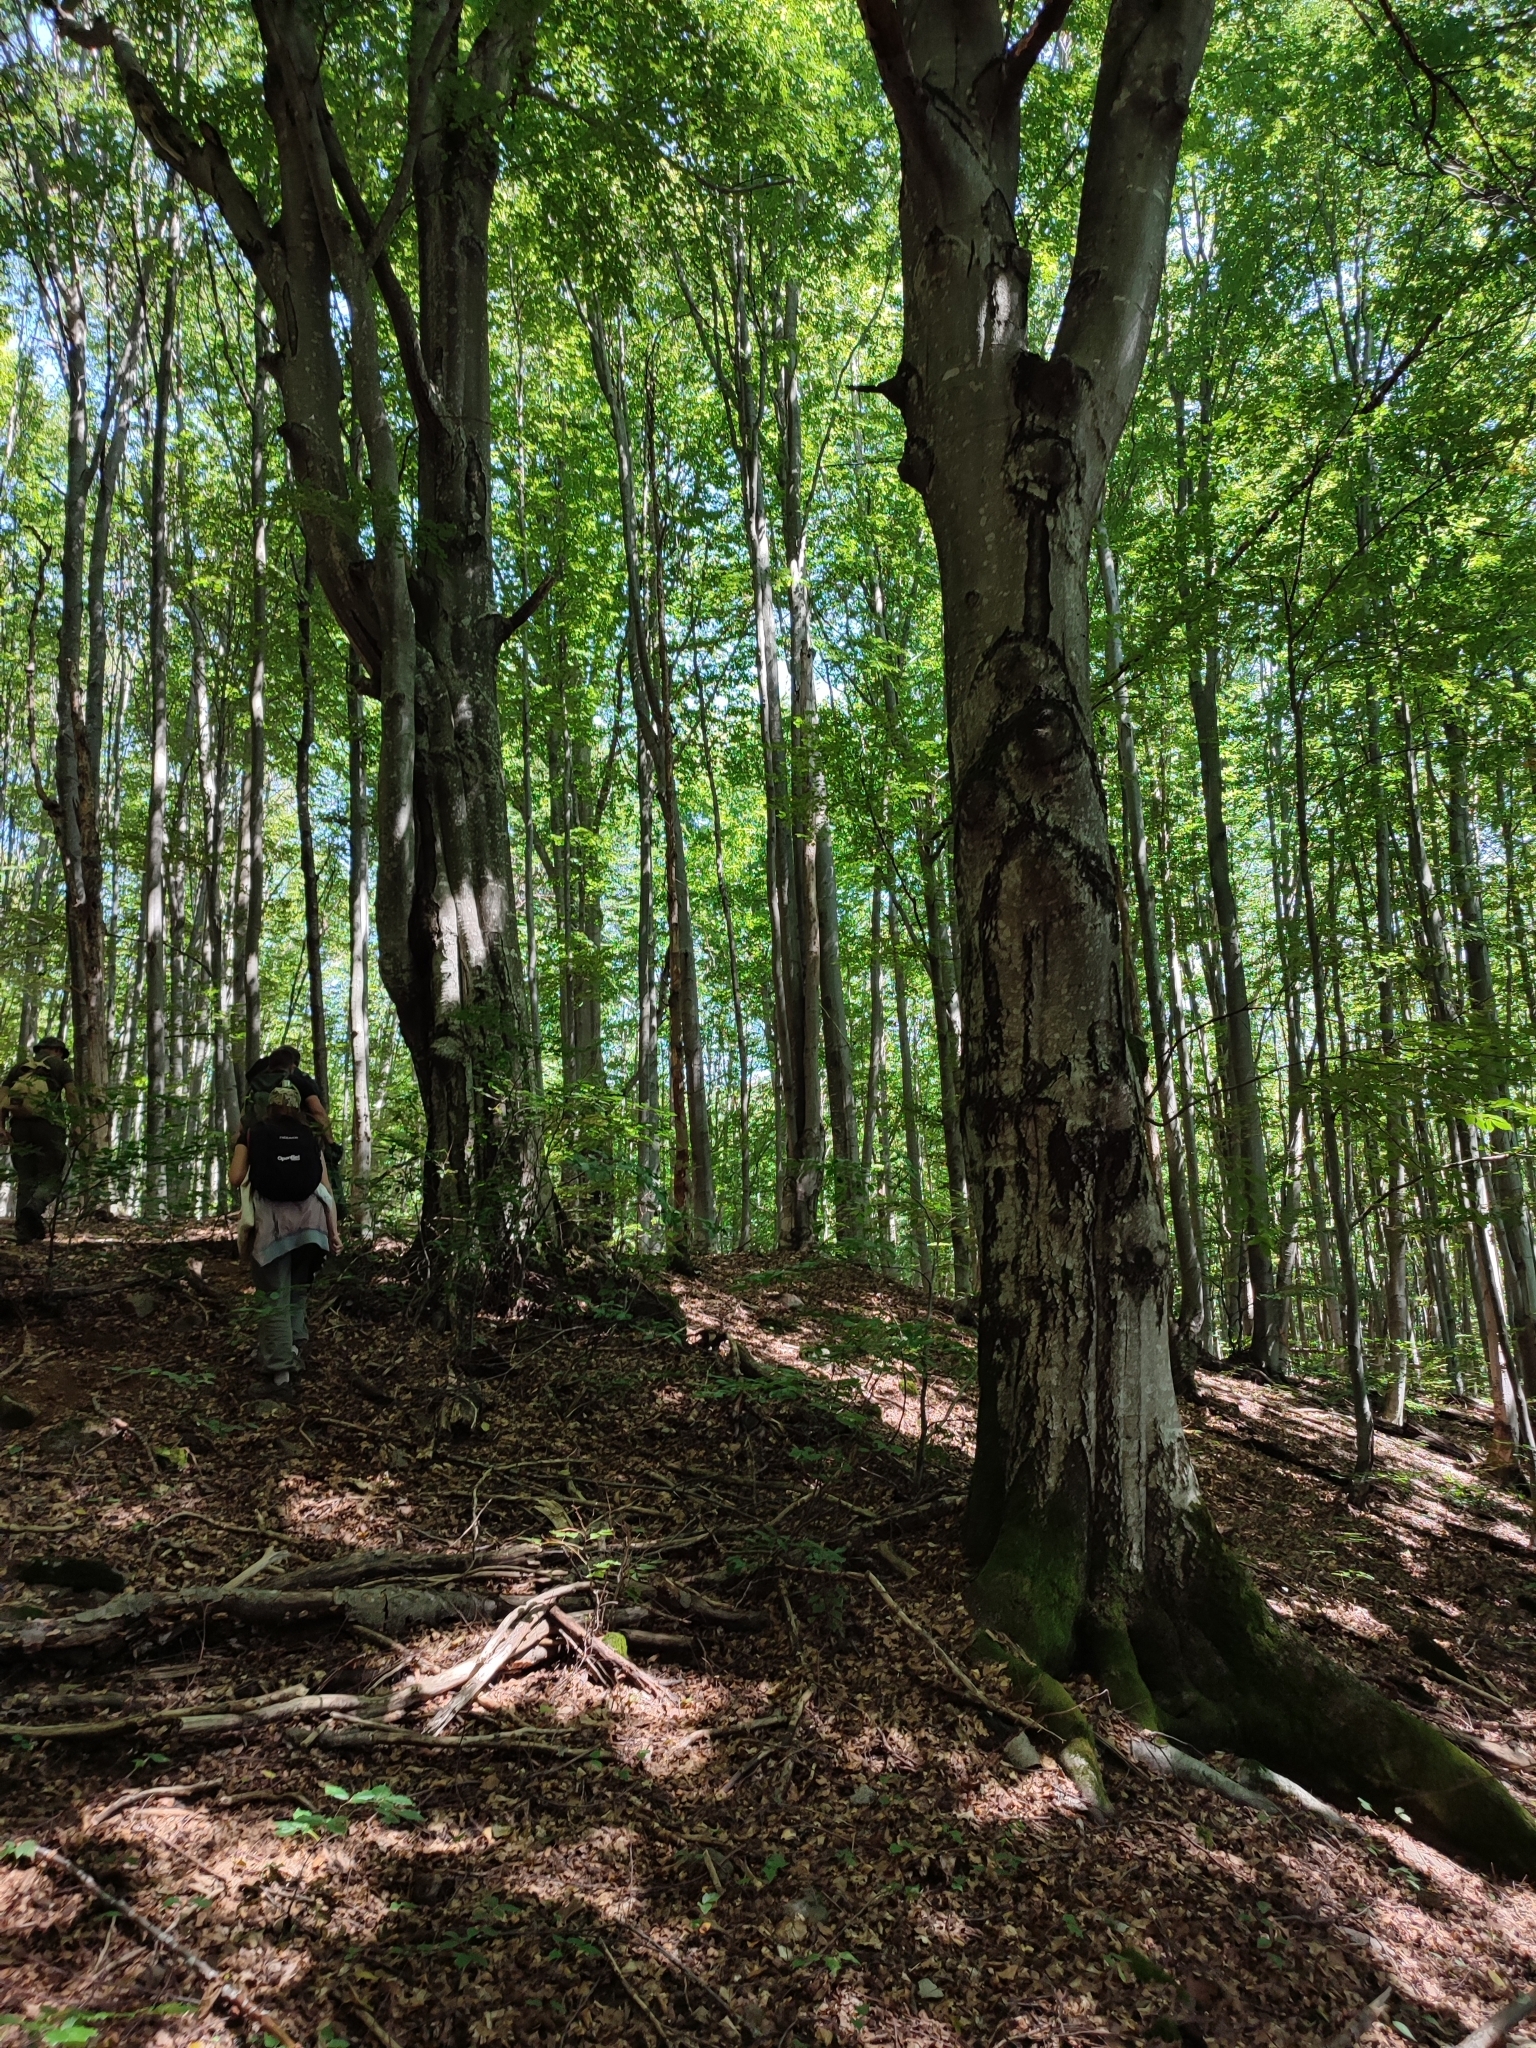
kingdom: Plantae
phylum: Tracheophyta
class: Magnoliopsida
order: Fagales
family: Fagaceae
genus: Fagus
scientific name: Fagus sylvatica
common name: Beech
